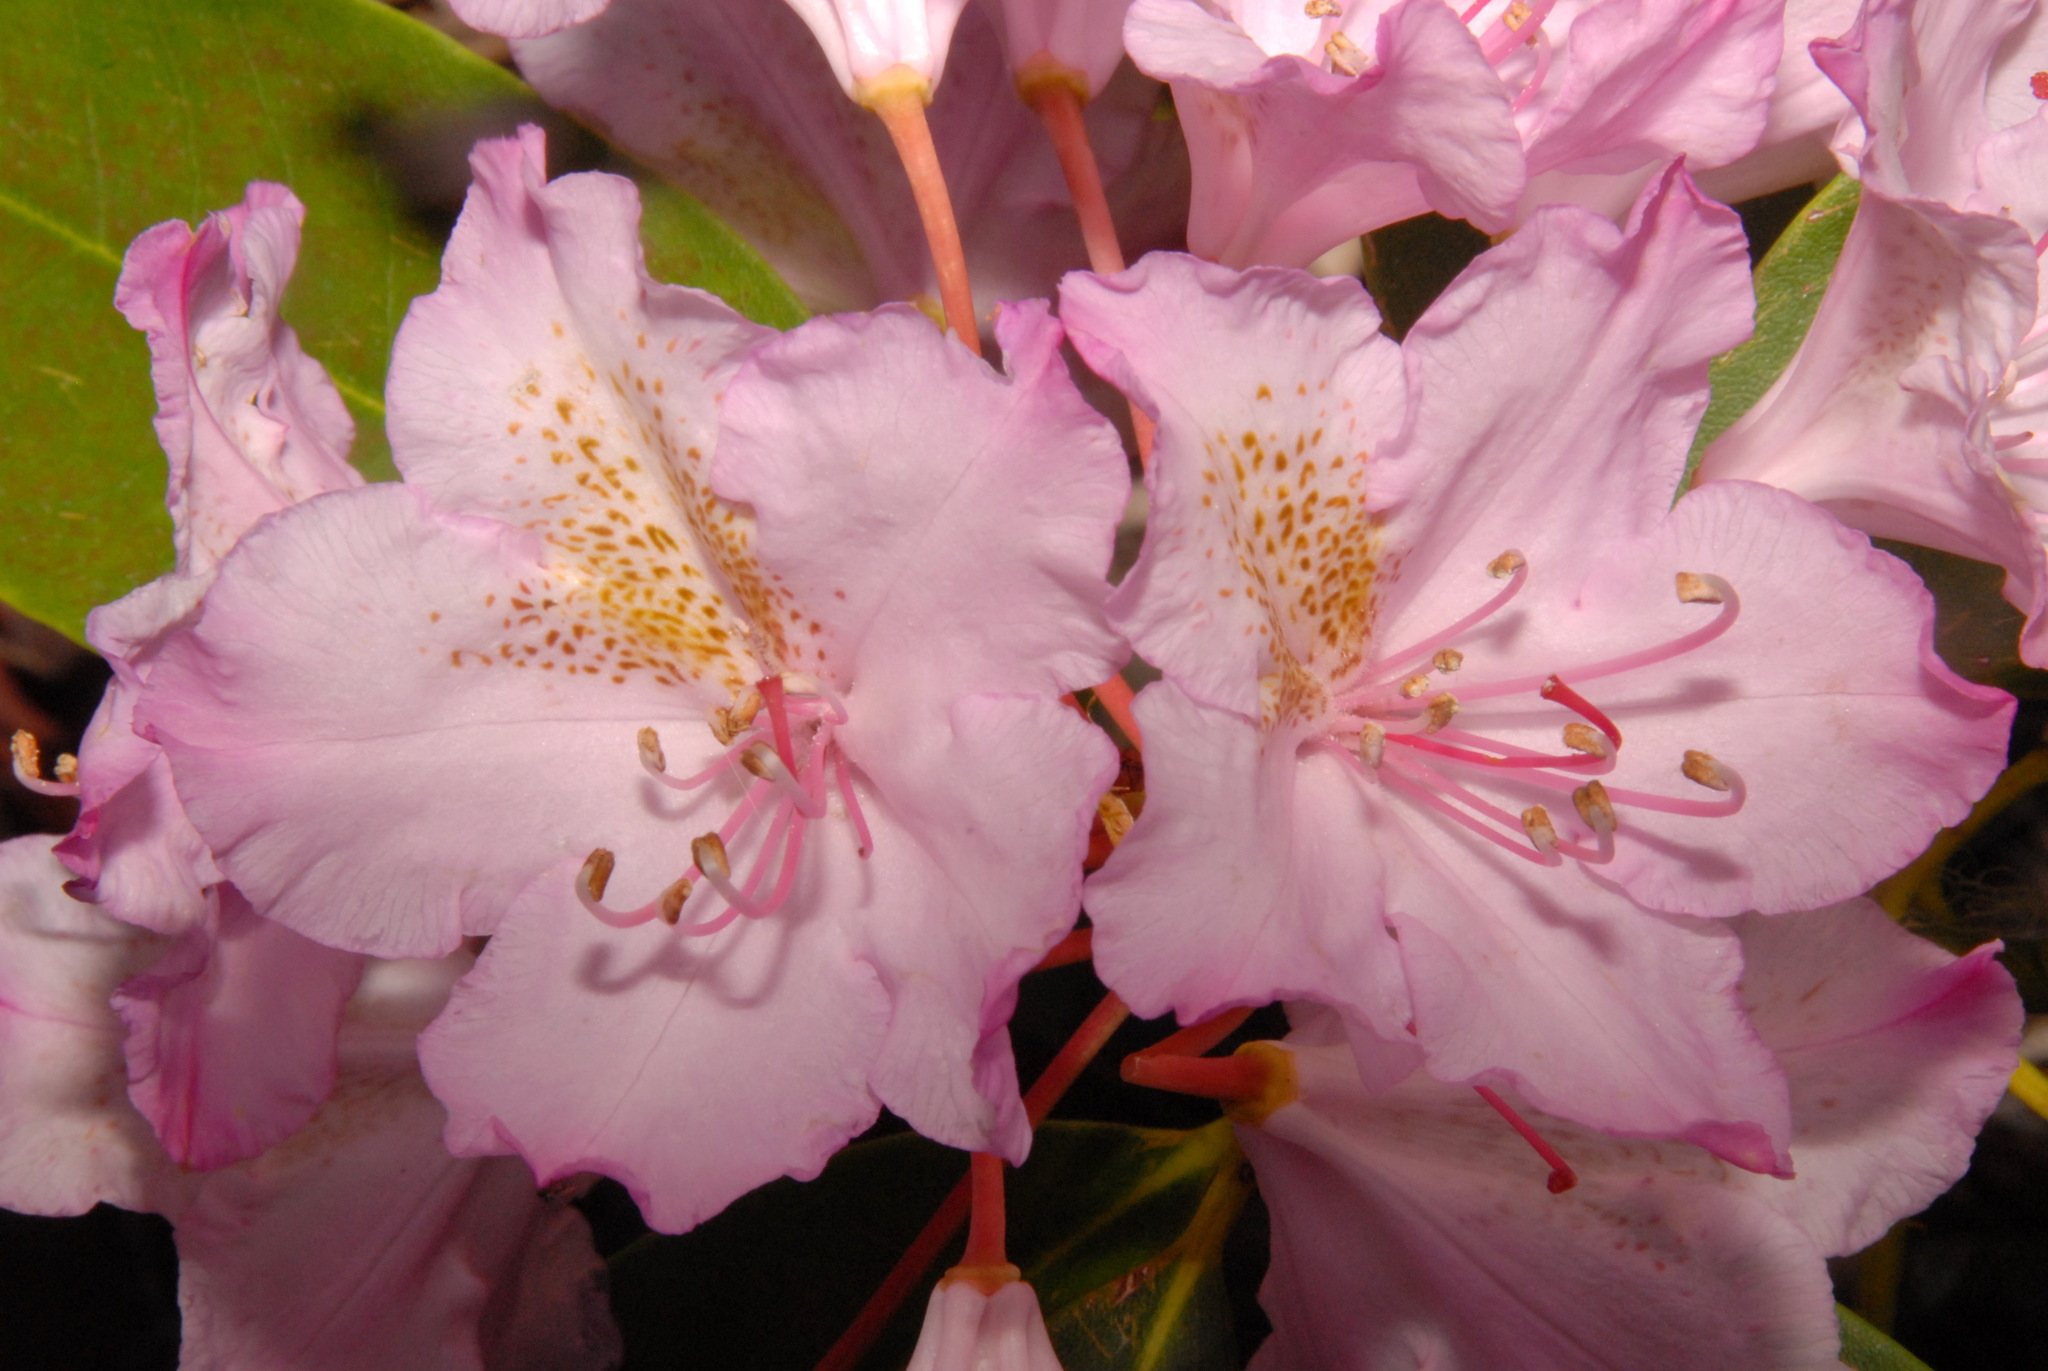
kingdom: Plantae
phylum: Tracheophyta
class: Magnoliopsida
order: Ericales
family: Ericaceae
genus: Rhododendron
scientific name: Rhododendron macrophyllum
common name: California rose bay
